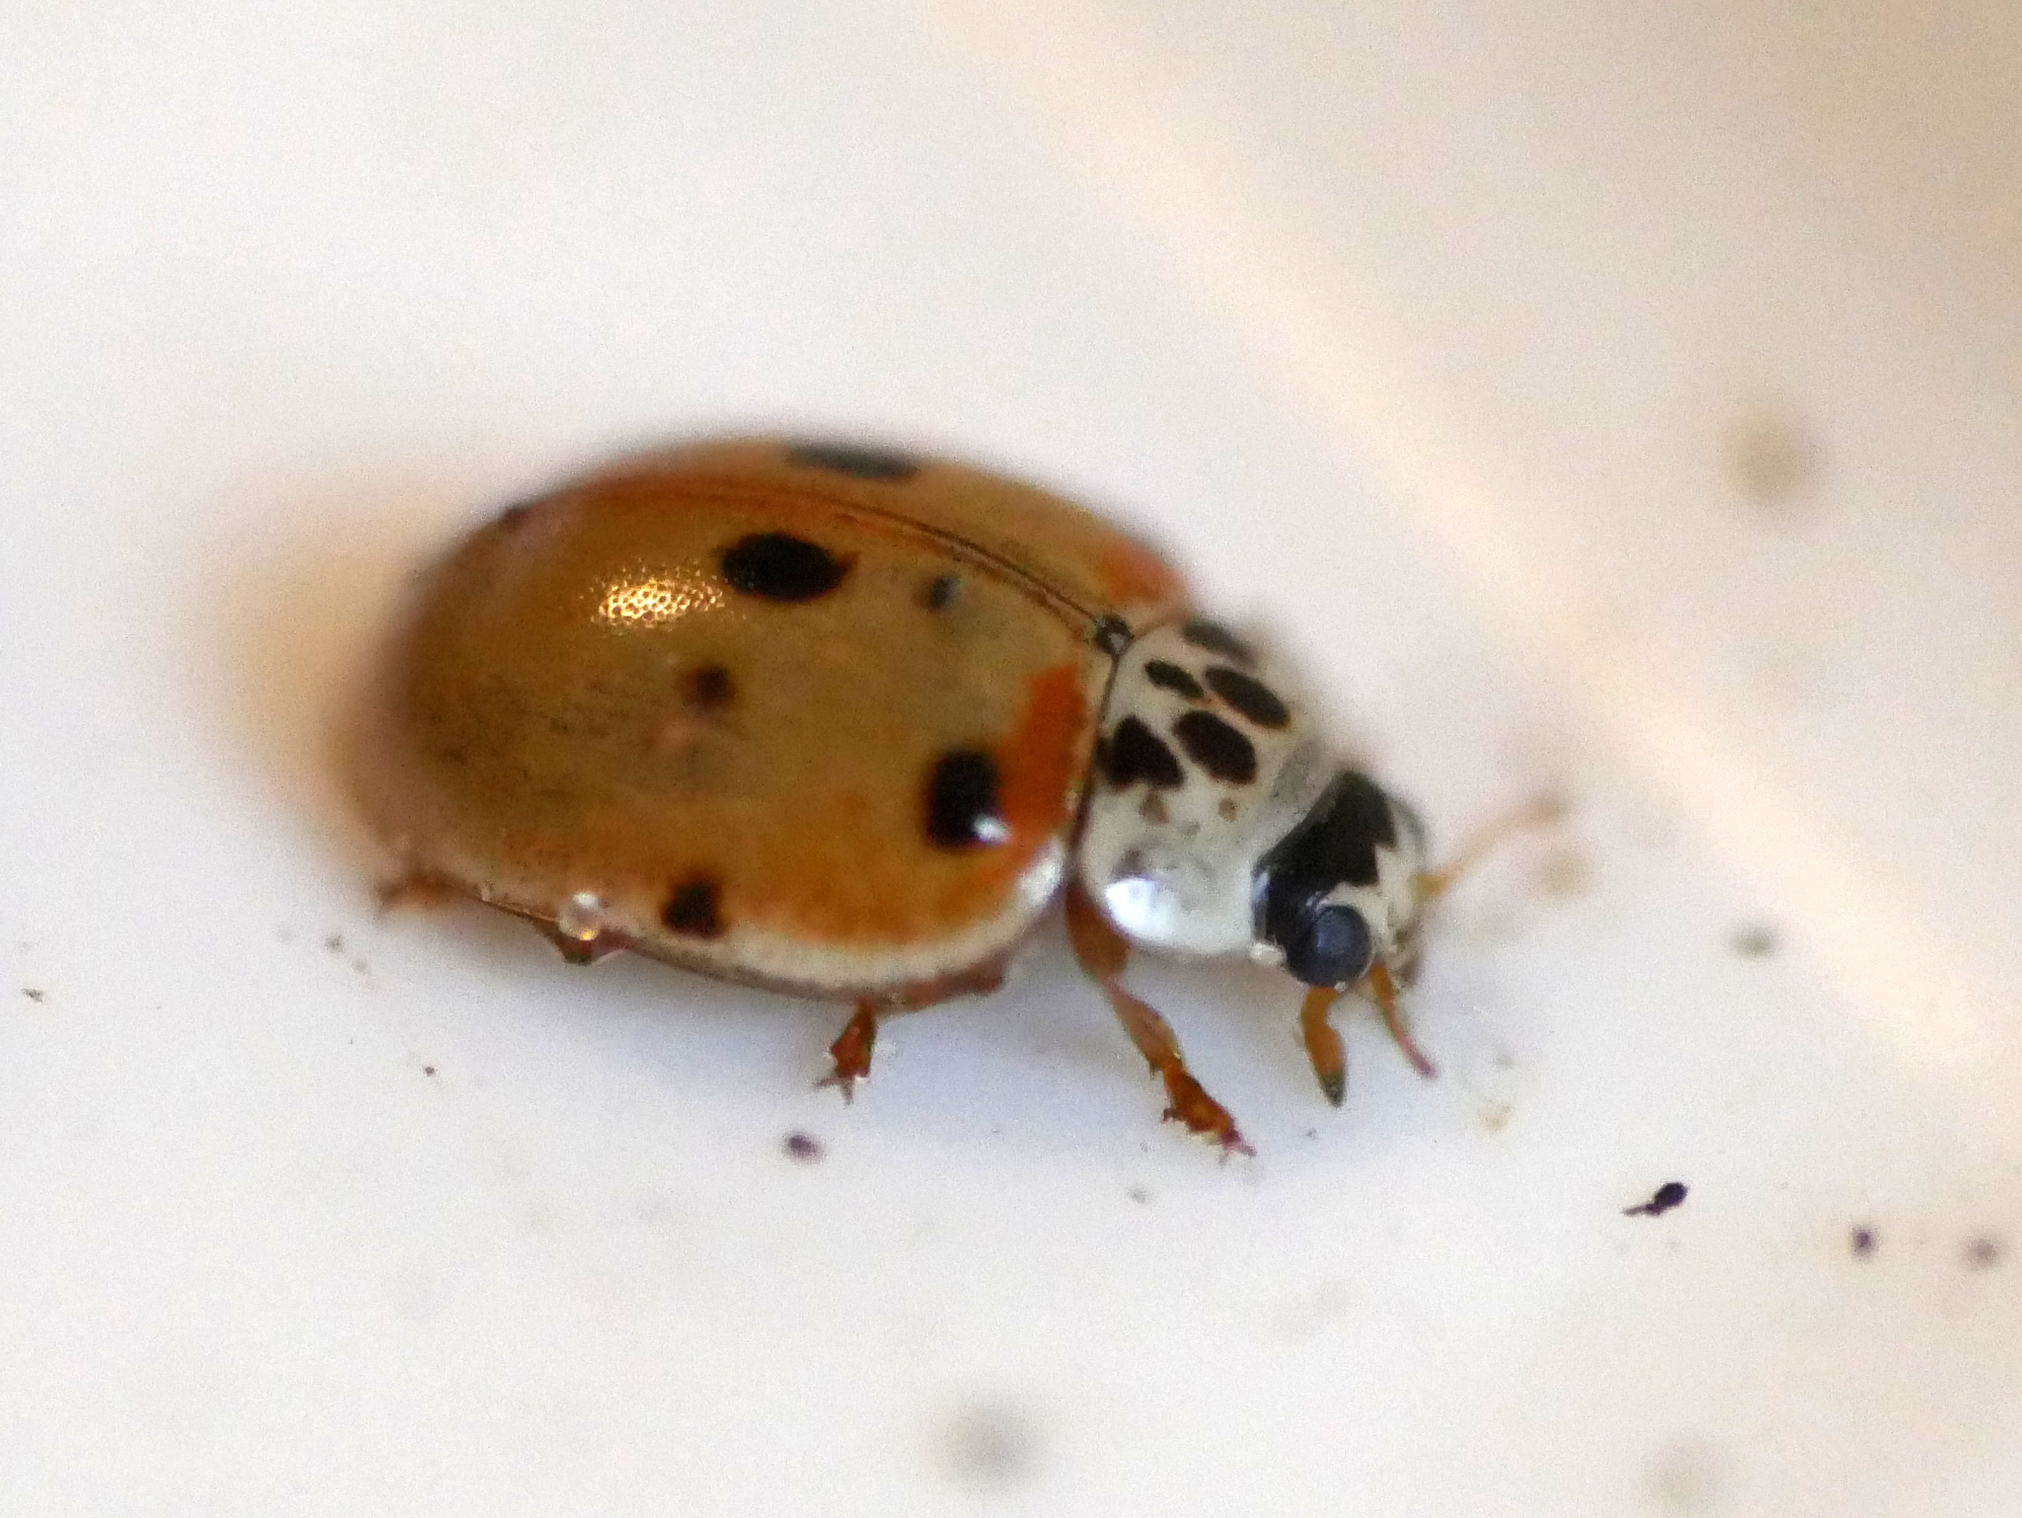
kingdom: Animalia
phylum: Arthropoda
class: Insecta
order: Coleoptera
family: Coccinellidae
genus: Adalia
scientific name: Adalia decempunctata
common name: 10-spot ladybird
